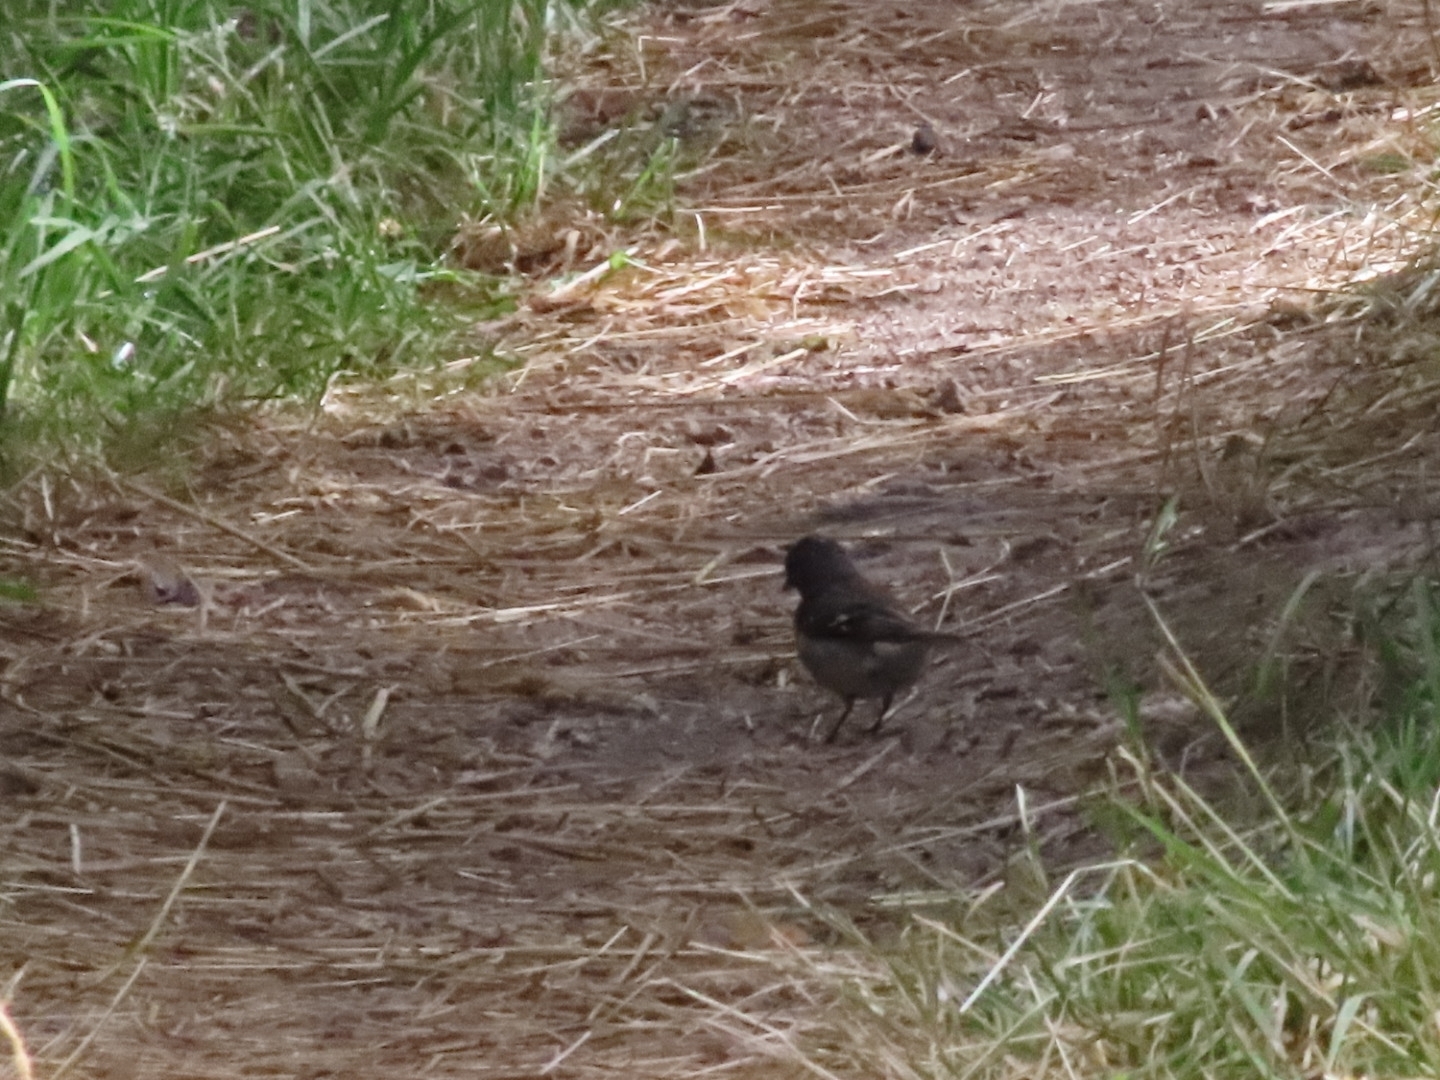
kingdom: Animalia
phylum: Chordata
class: Aves
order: Passeriformes
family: Fringillidae
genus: Fringilla
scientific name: Fringilla coelebs
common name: Common chaffinch
